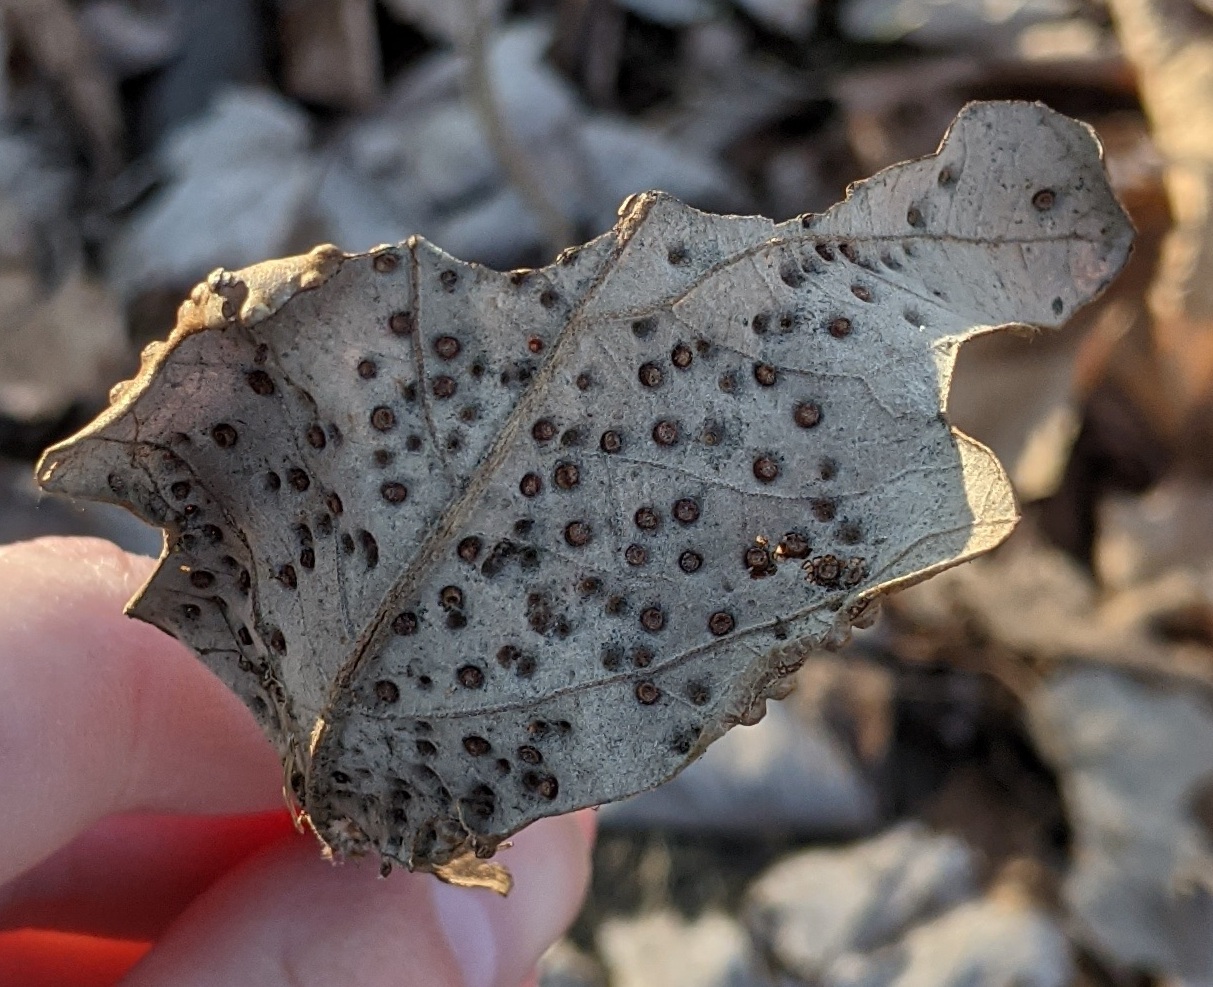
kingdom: Animalia
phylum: Arthropoda
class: Insecta
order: Hymenoptera
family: Cynipidae
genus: Neuroterus
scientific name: Neuroterus saltarius
